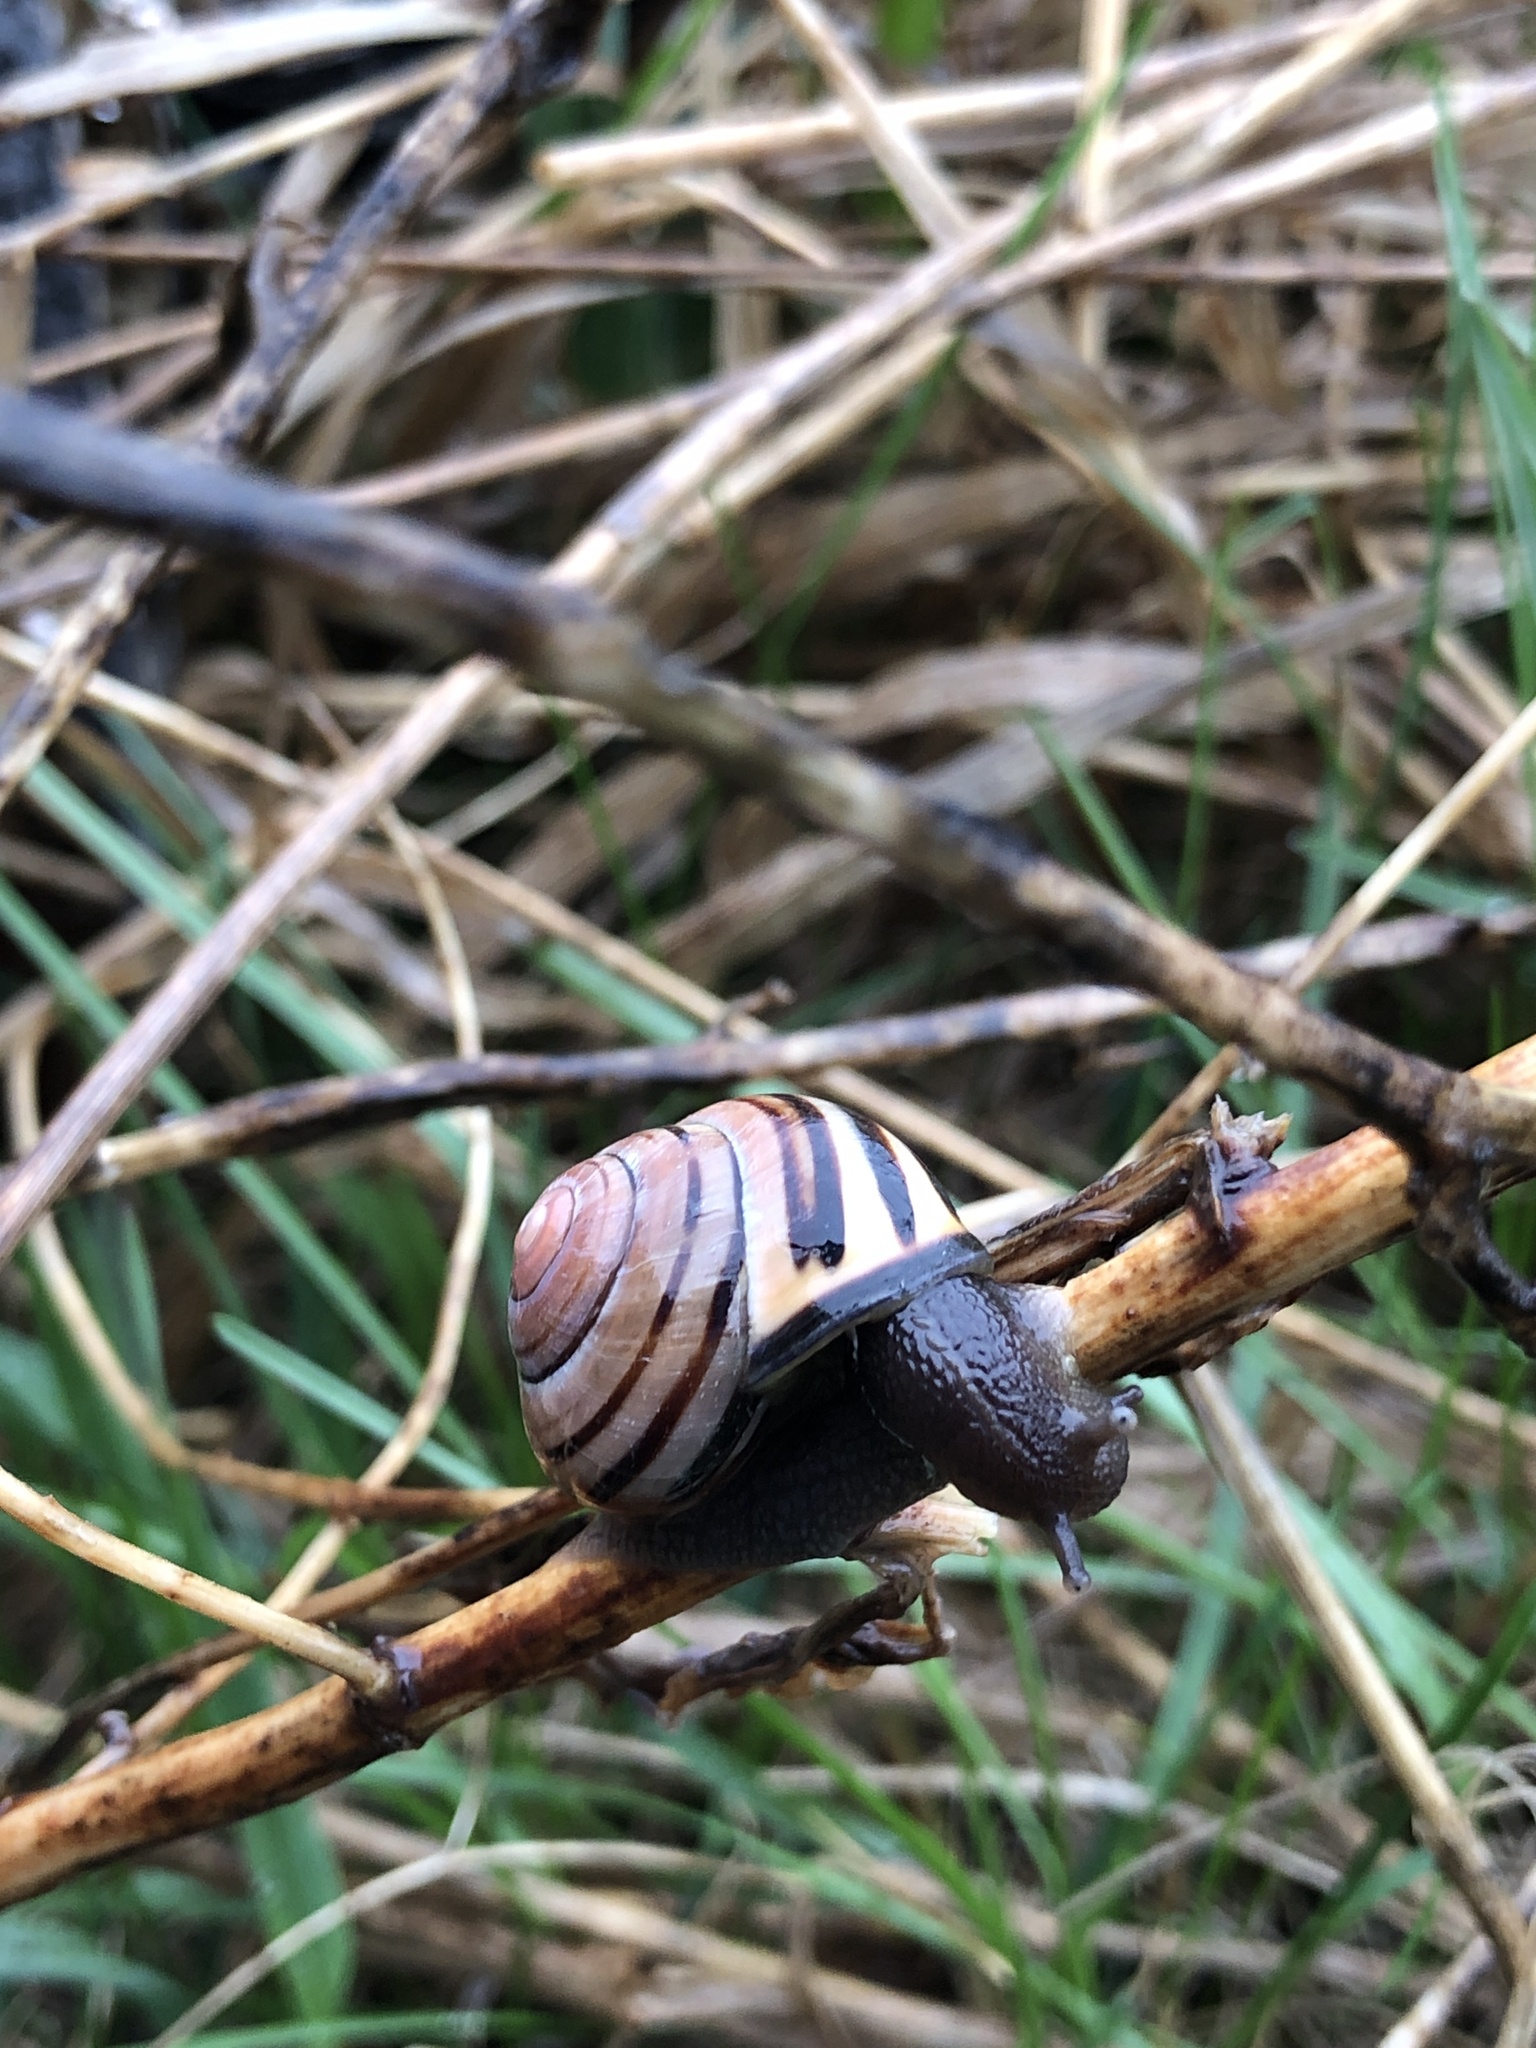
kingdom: Animalia
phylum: Mollusca
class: Gastropoda
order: Stylommatophora
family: Helicidae
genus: Cepaea
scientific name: Cepaea nemoralis
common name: Grovesnail
